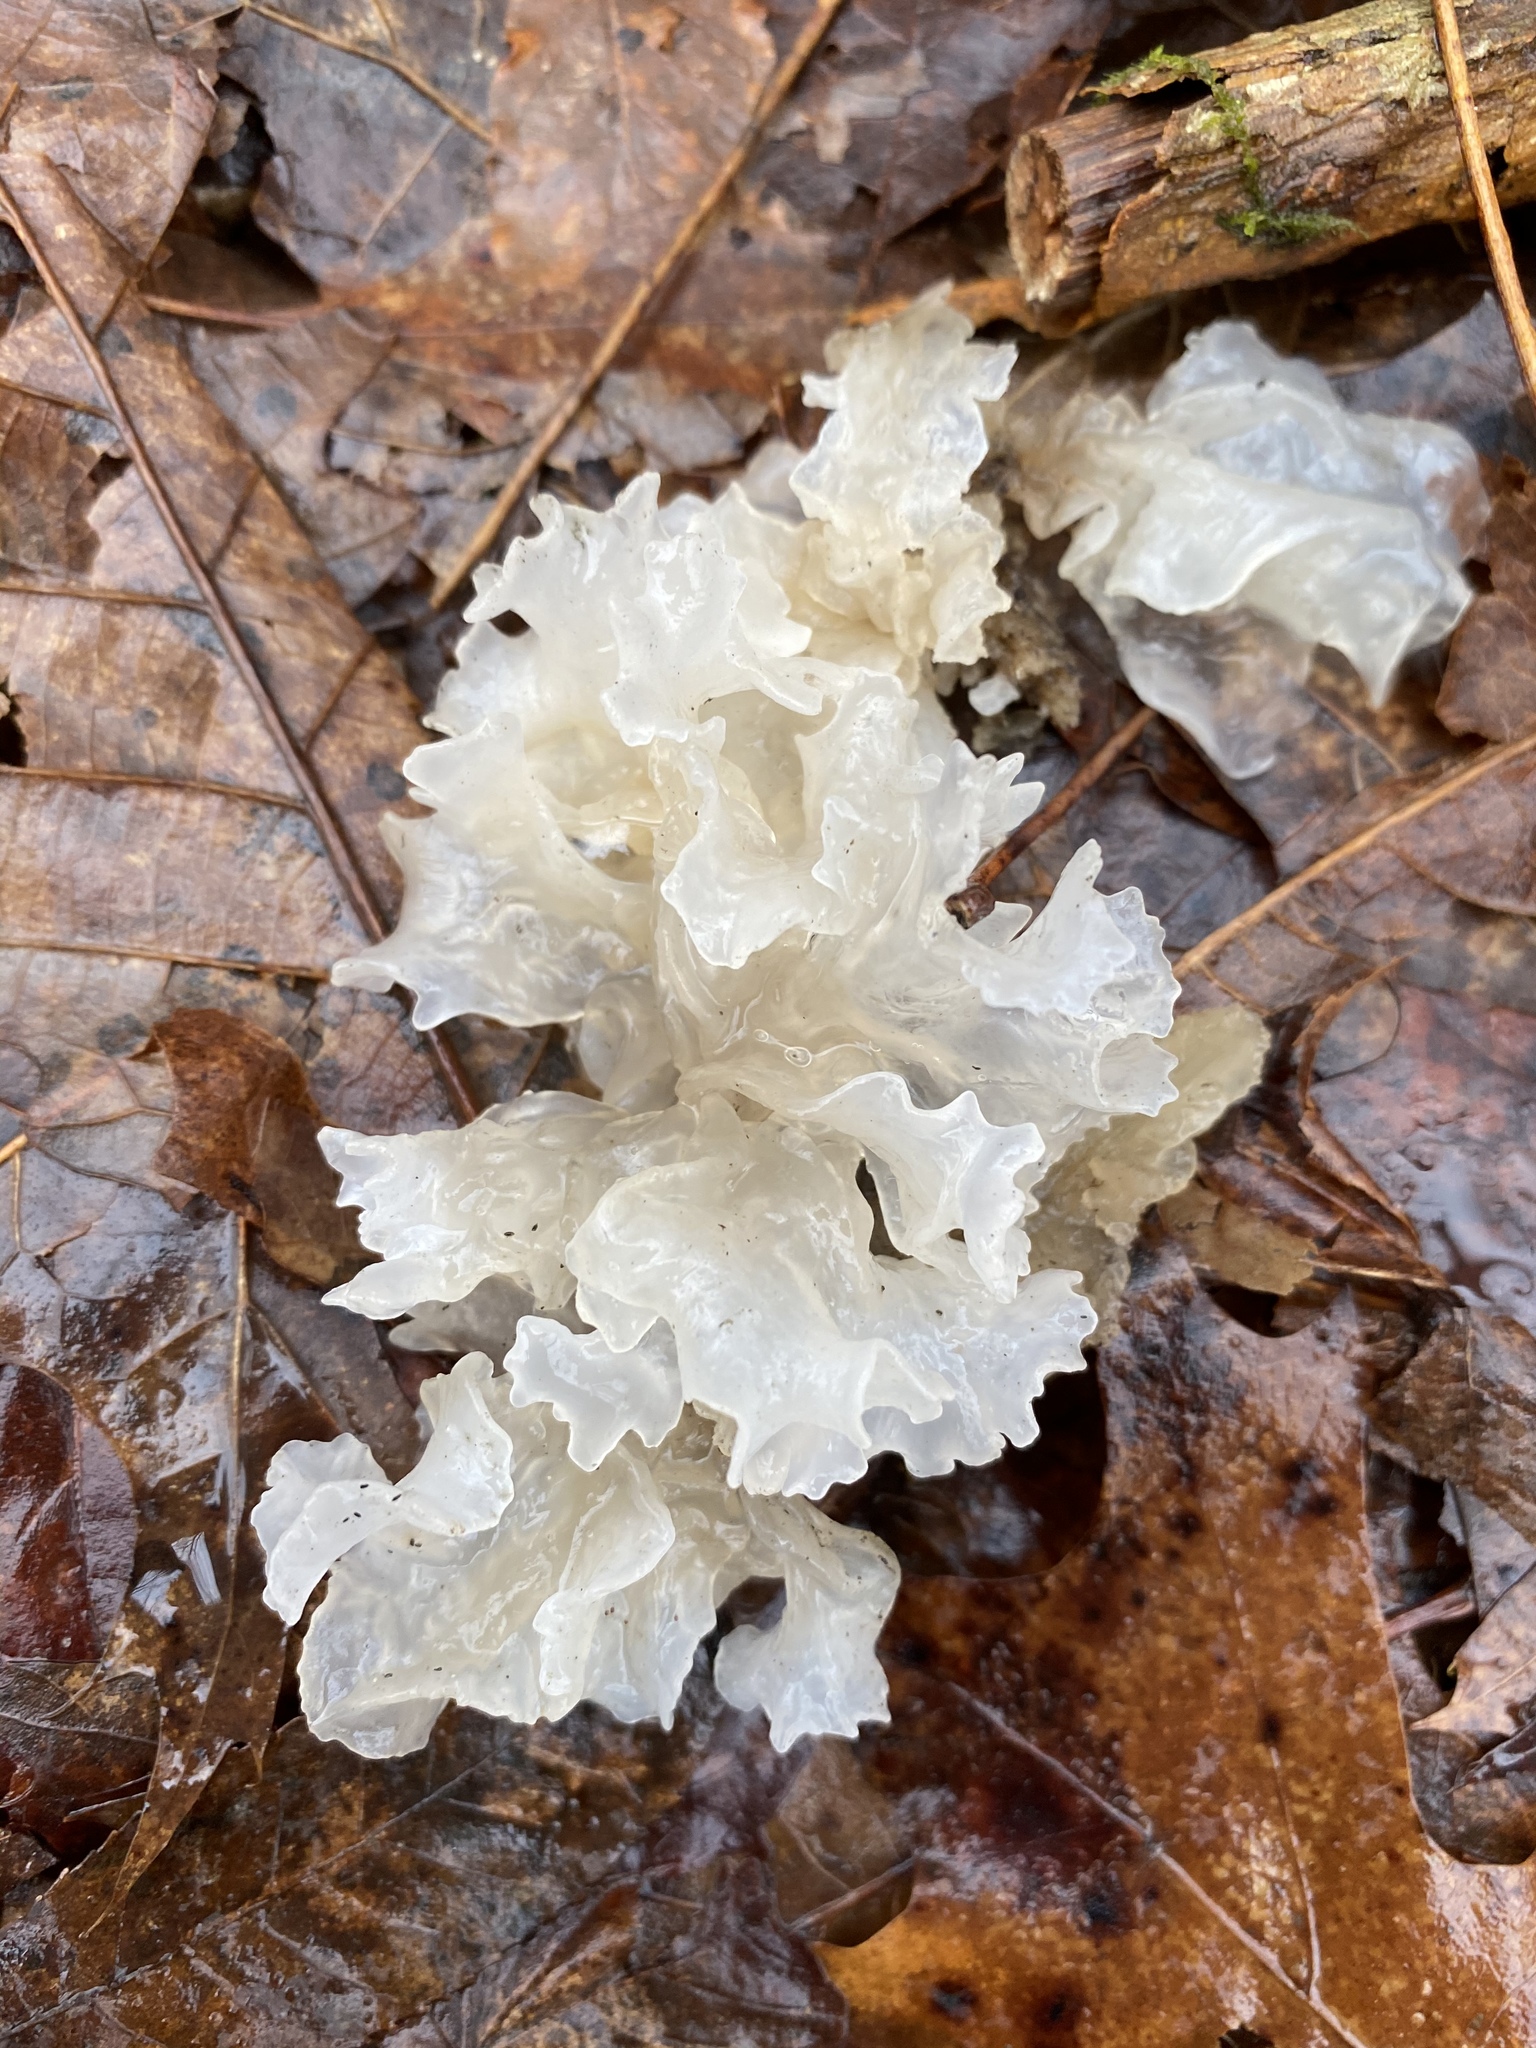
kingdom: Fungi
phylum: Basidiomycota
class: Tremellomycetes
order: Tremellales
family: Tremellaceae
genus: Tremella
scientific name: Tremella fuciformis
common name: Snow fungus
